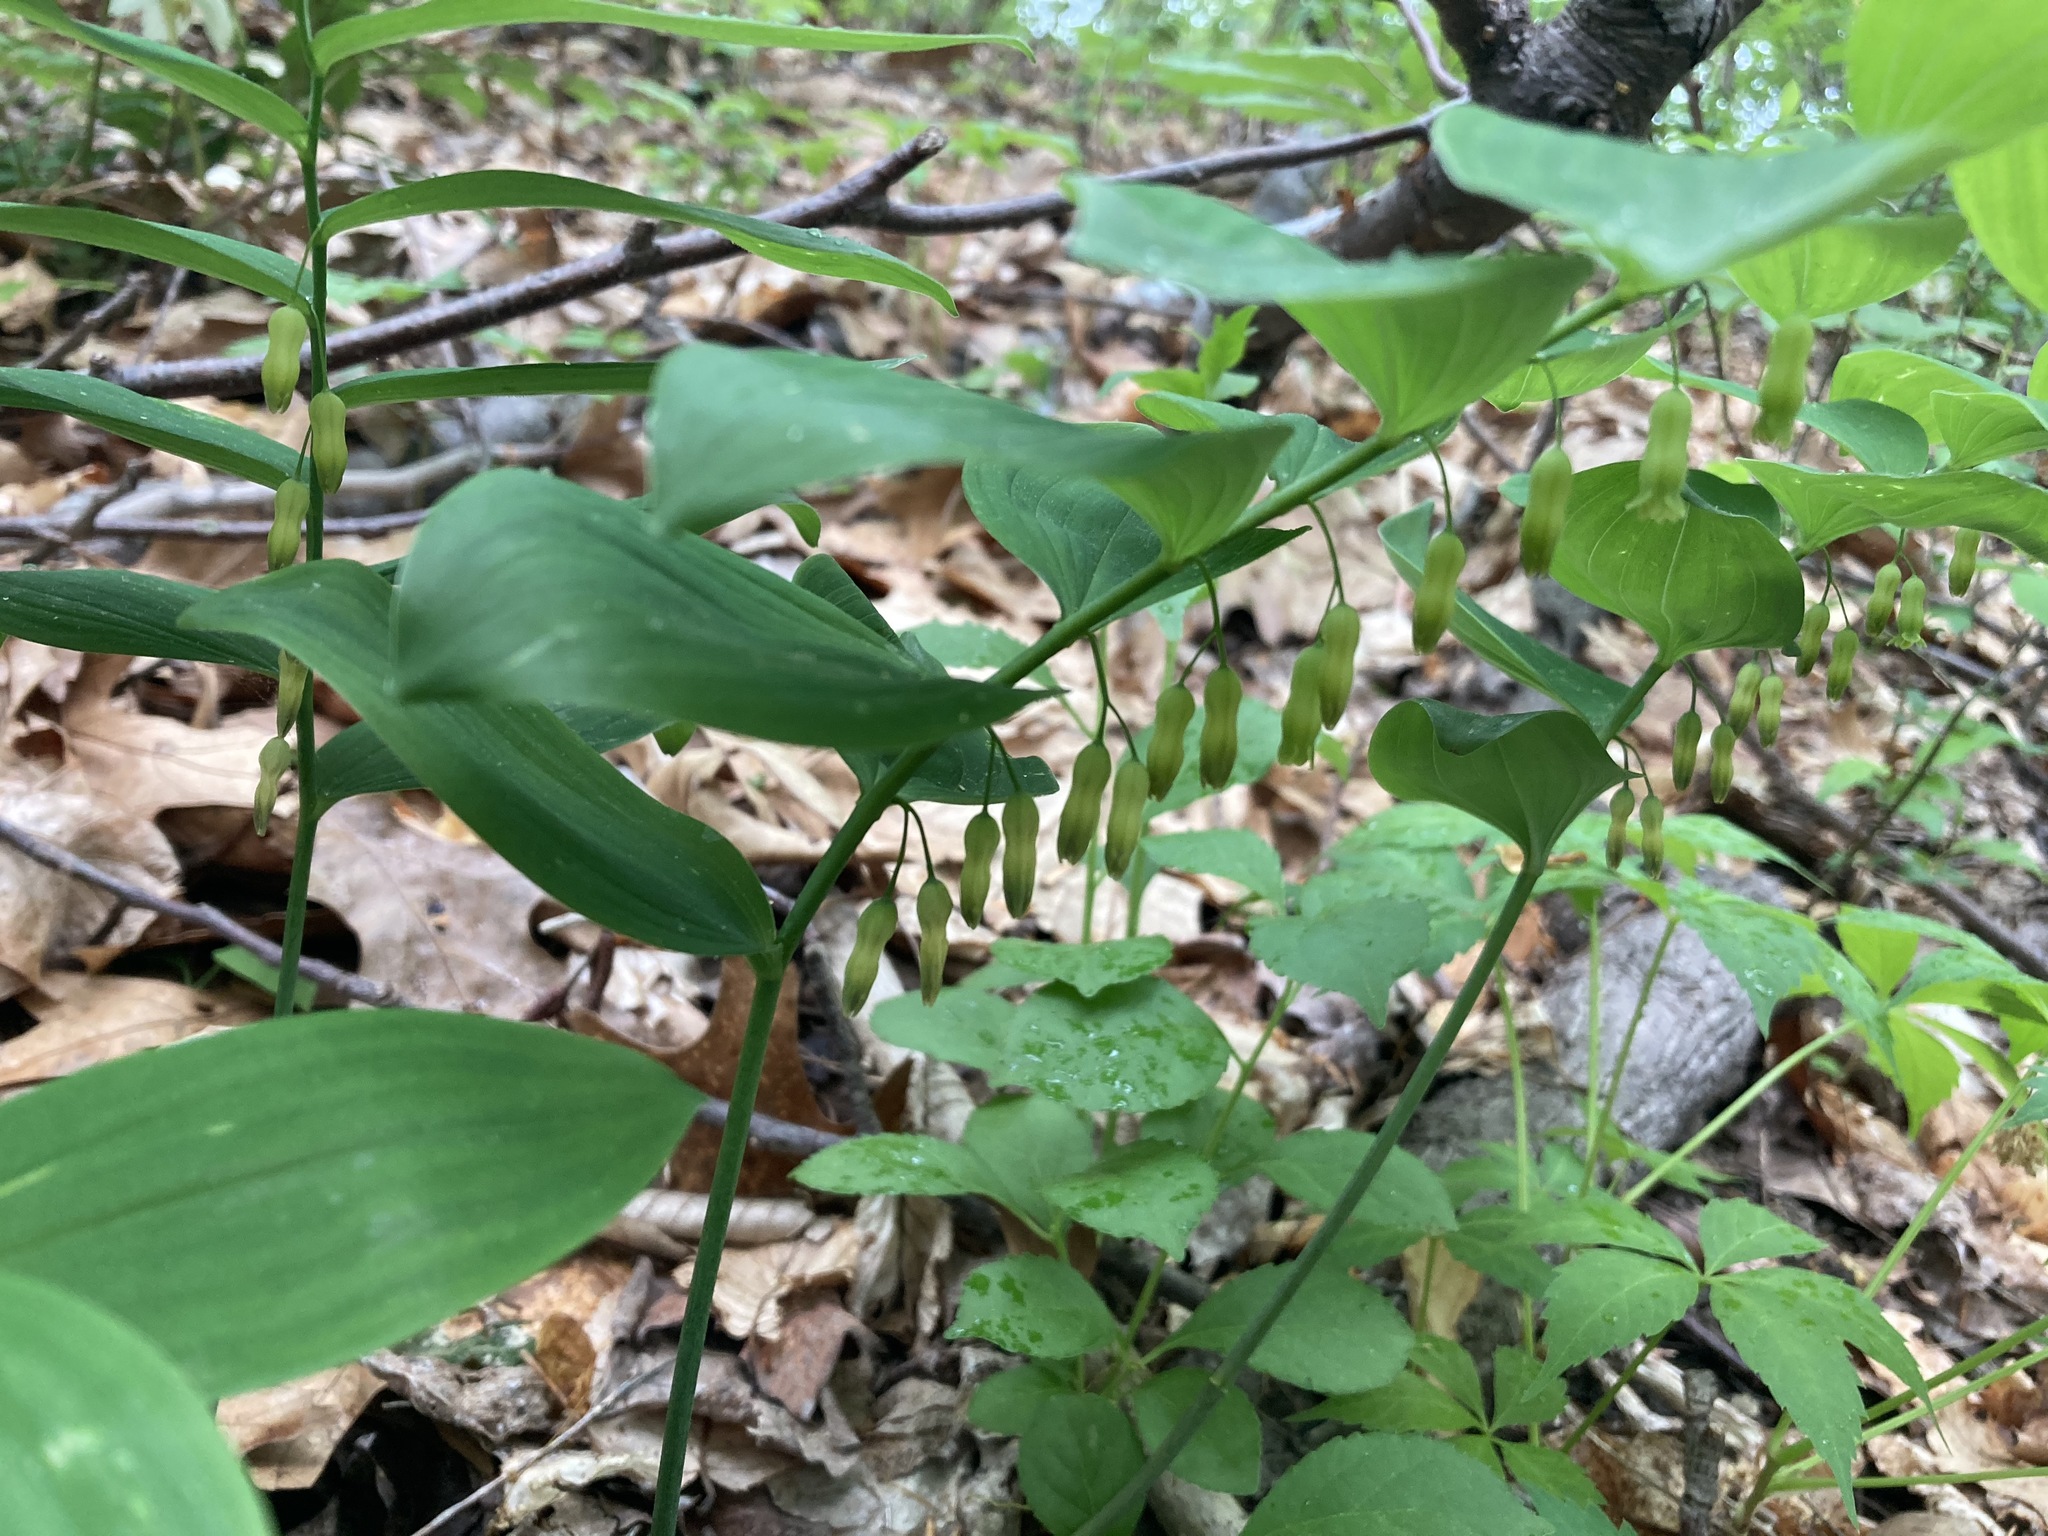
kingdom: Plantae
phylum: Tracheophyta
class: Liliopsida
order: Asparagales
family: Asparagaceae
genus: Polygonatum
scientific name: Polygonatum pubescens
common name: Downy solomon's seal
